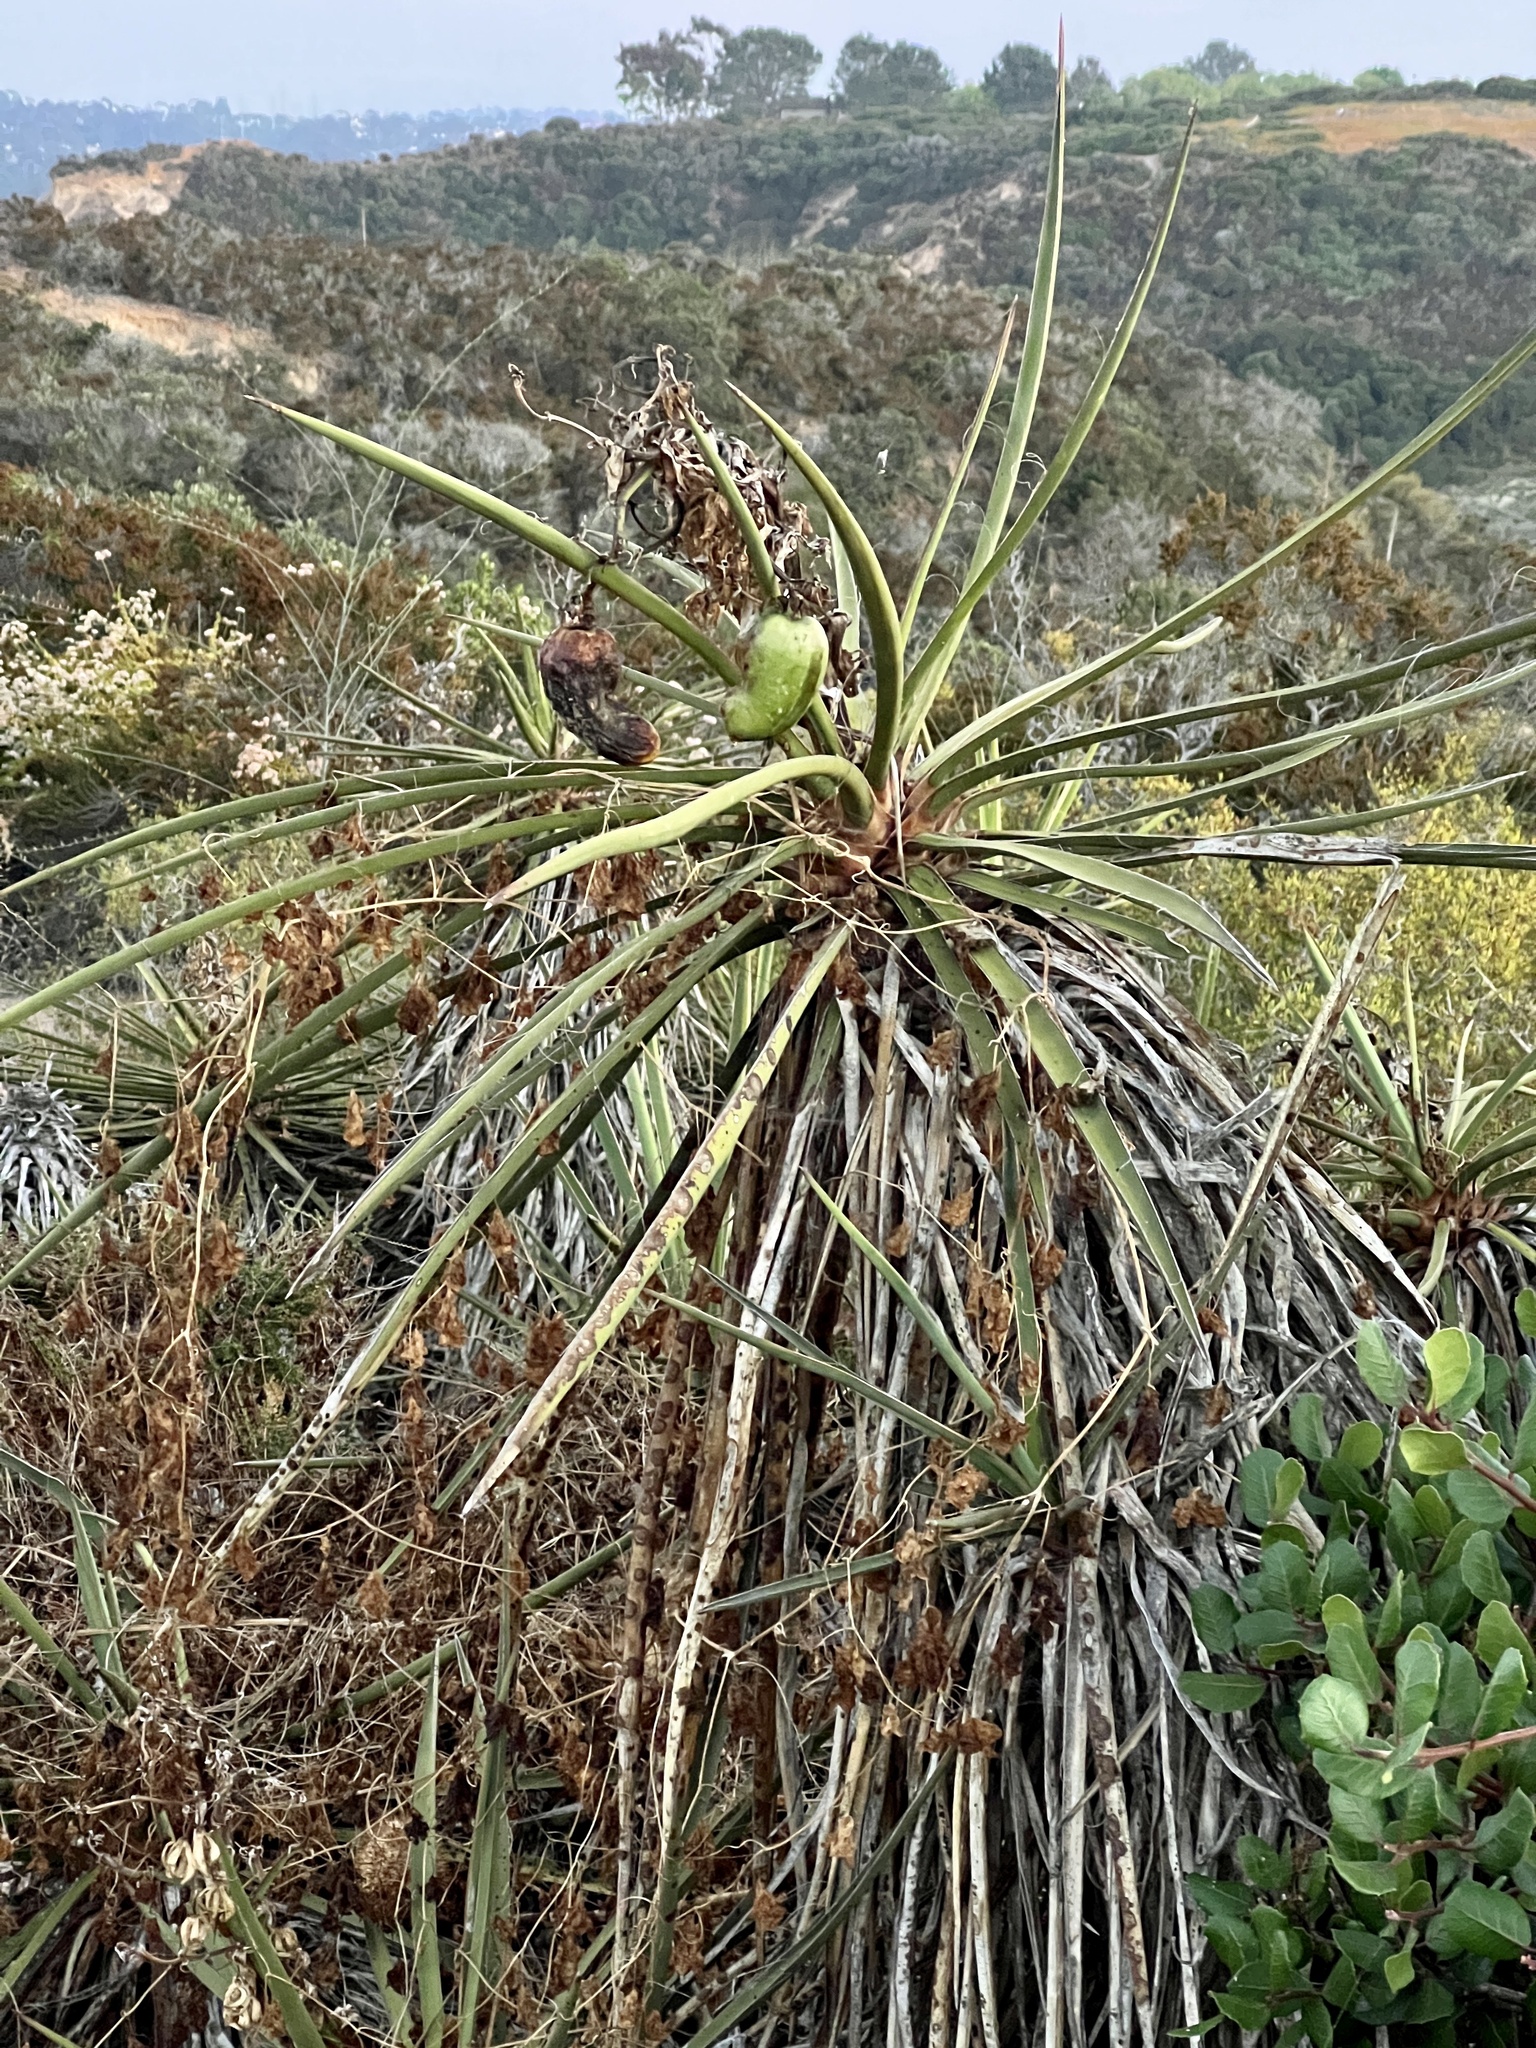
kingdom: Plantae
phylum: Tracheophyta
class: Liliopsida
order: Asparagales
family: Asparagaceae
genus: Yucca
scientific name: Yucca schidigera
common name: Mojave yucca
